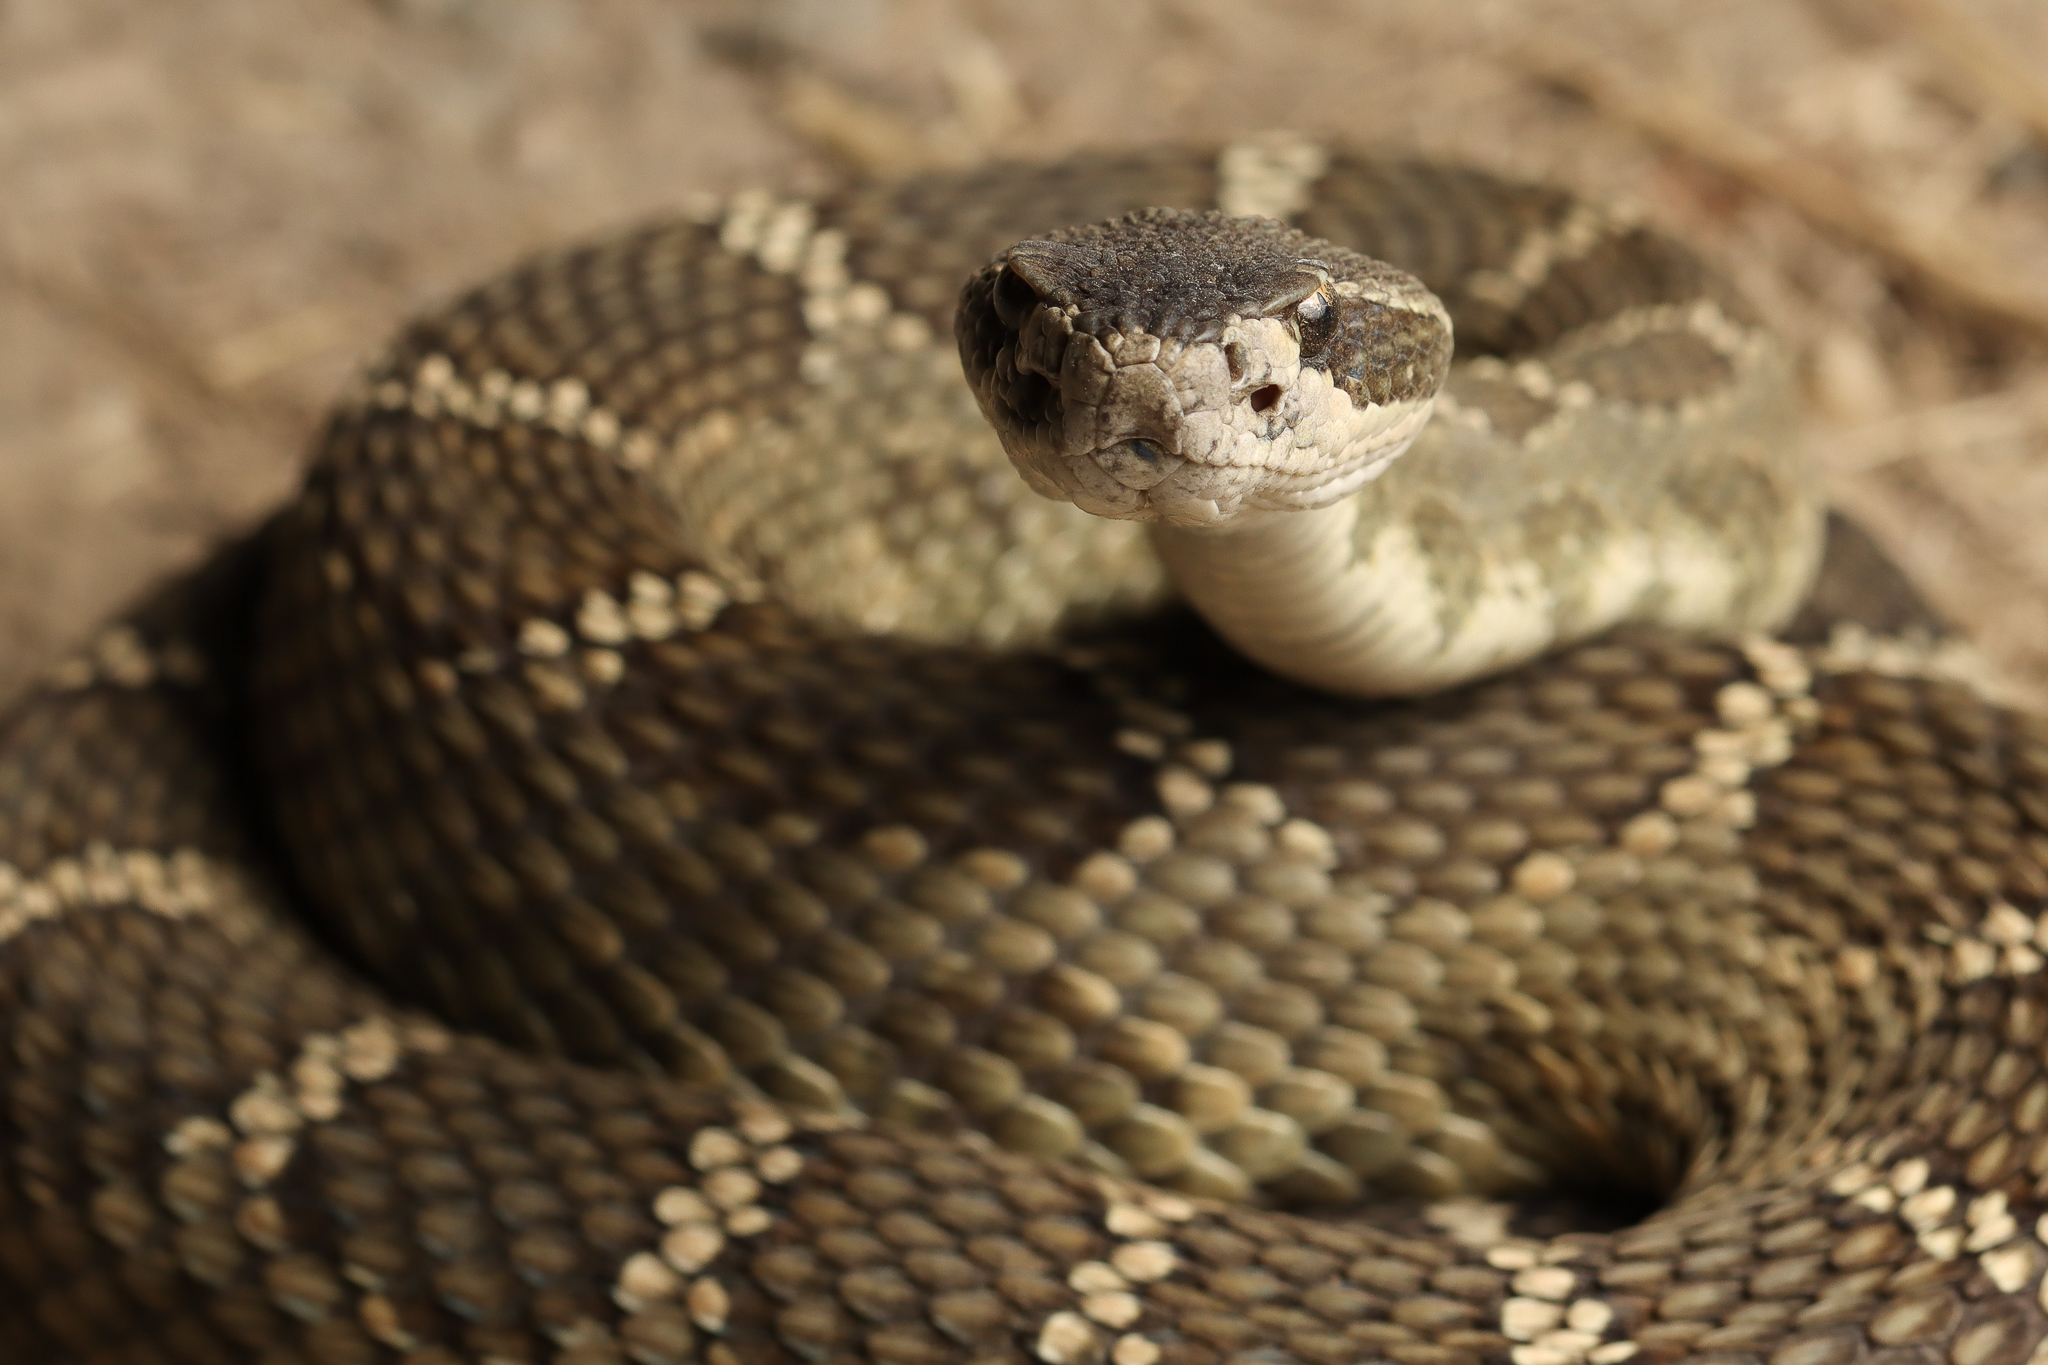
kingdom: Animalia
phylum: Chordata
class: Squamata
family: Viperidae
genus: Crotalus
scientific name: Crotalus oreganus
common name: Abyssus
